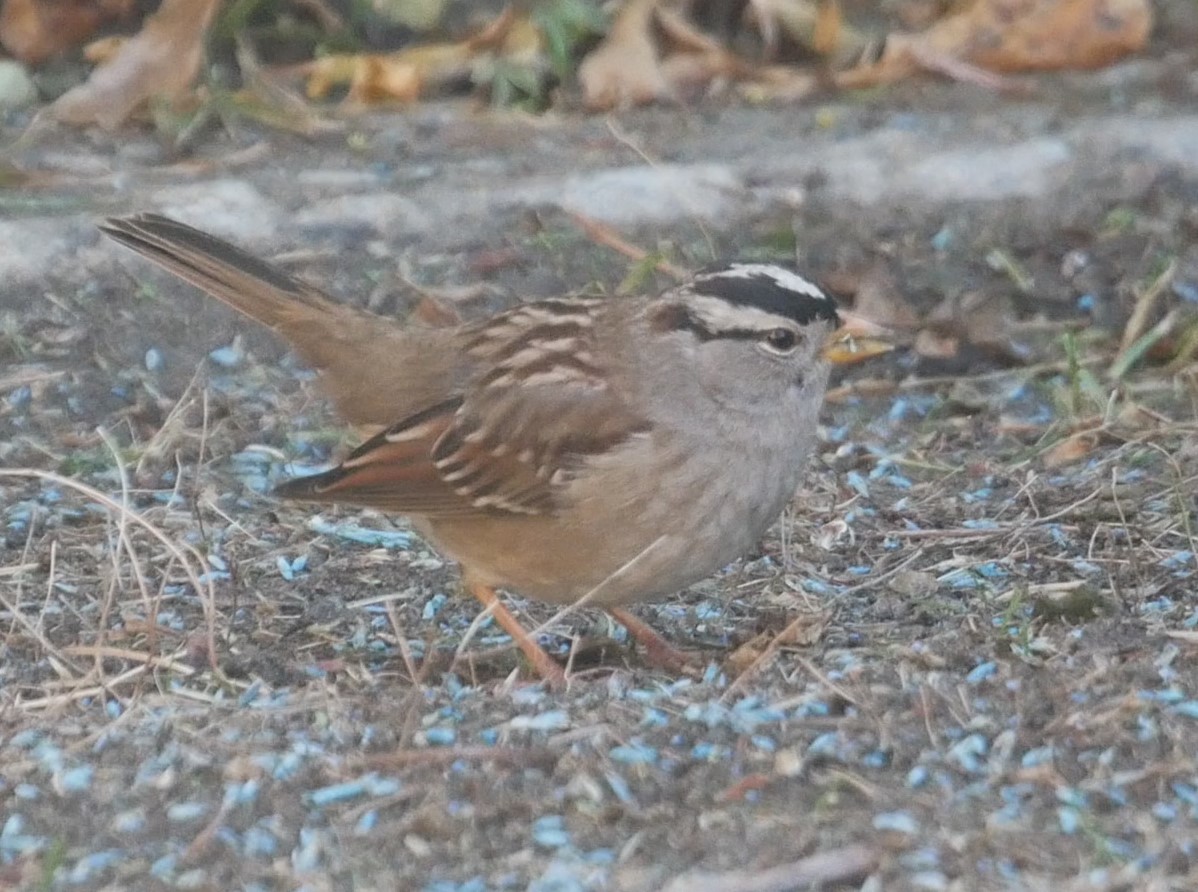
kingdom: Animalia
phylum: Chordata
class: Aves
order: Passeriformes
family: Passerellidae
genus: Zonotrichia
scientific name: Zonotrichia leucophrys
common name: White-crowned sparrow
